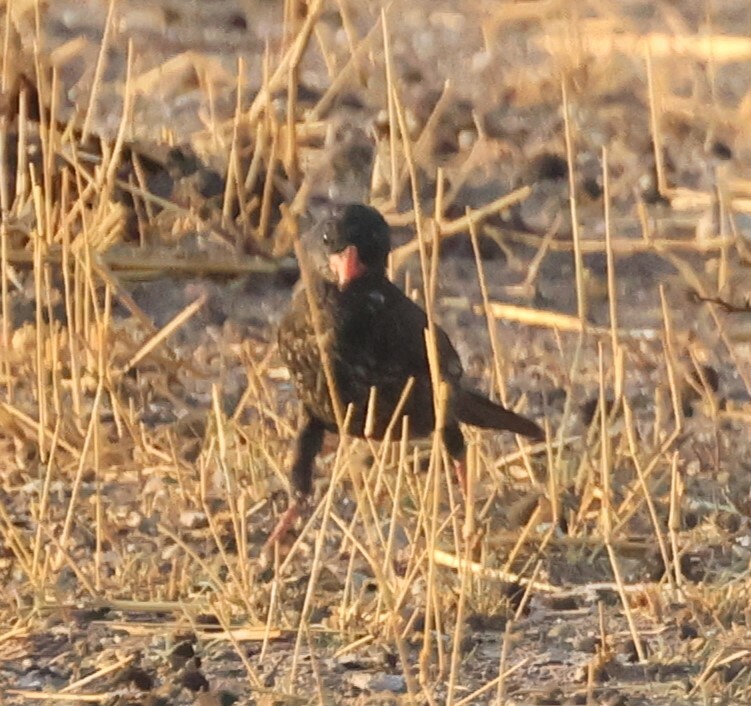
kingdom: Animalia
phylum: Chordata
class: Aves
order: Passeriformes
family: Ploceidae
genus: Bubalornis
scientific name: Bubalornis niger
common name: Red-billed buffalo weaver
